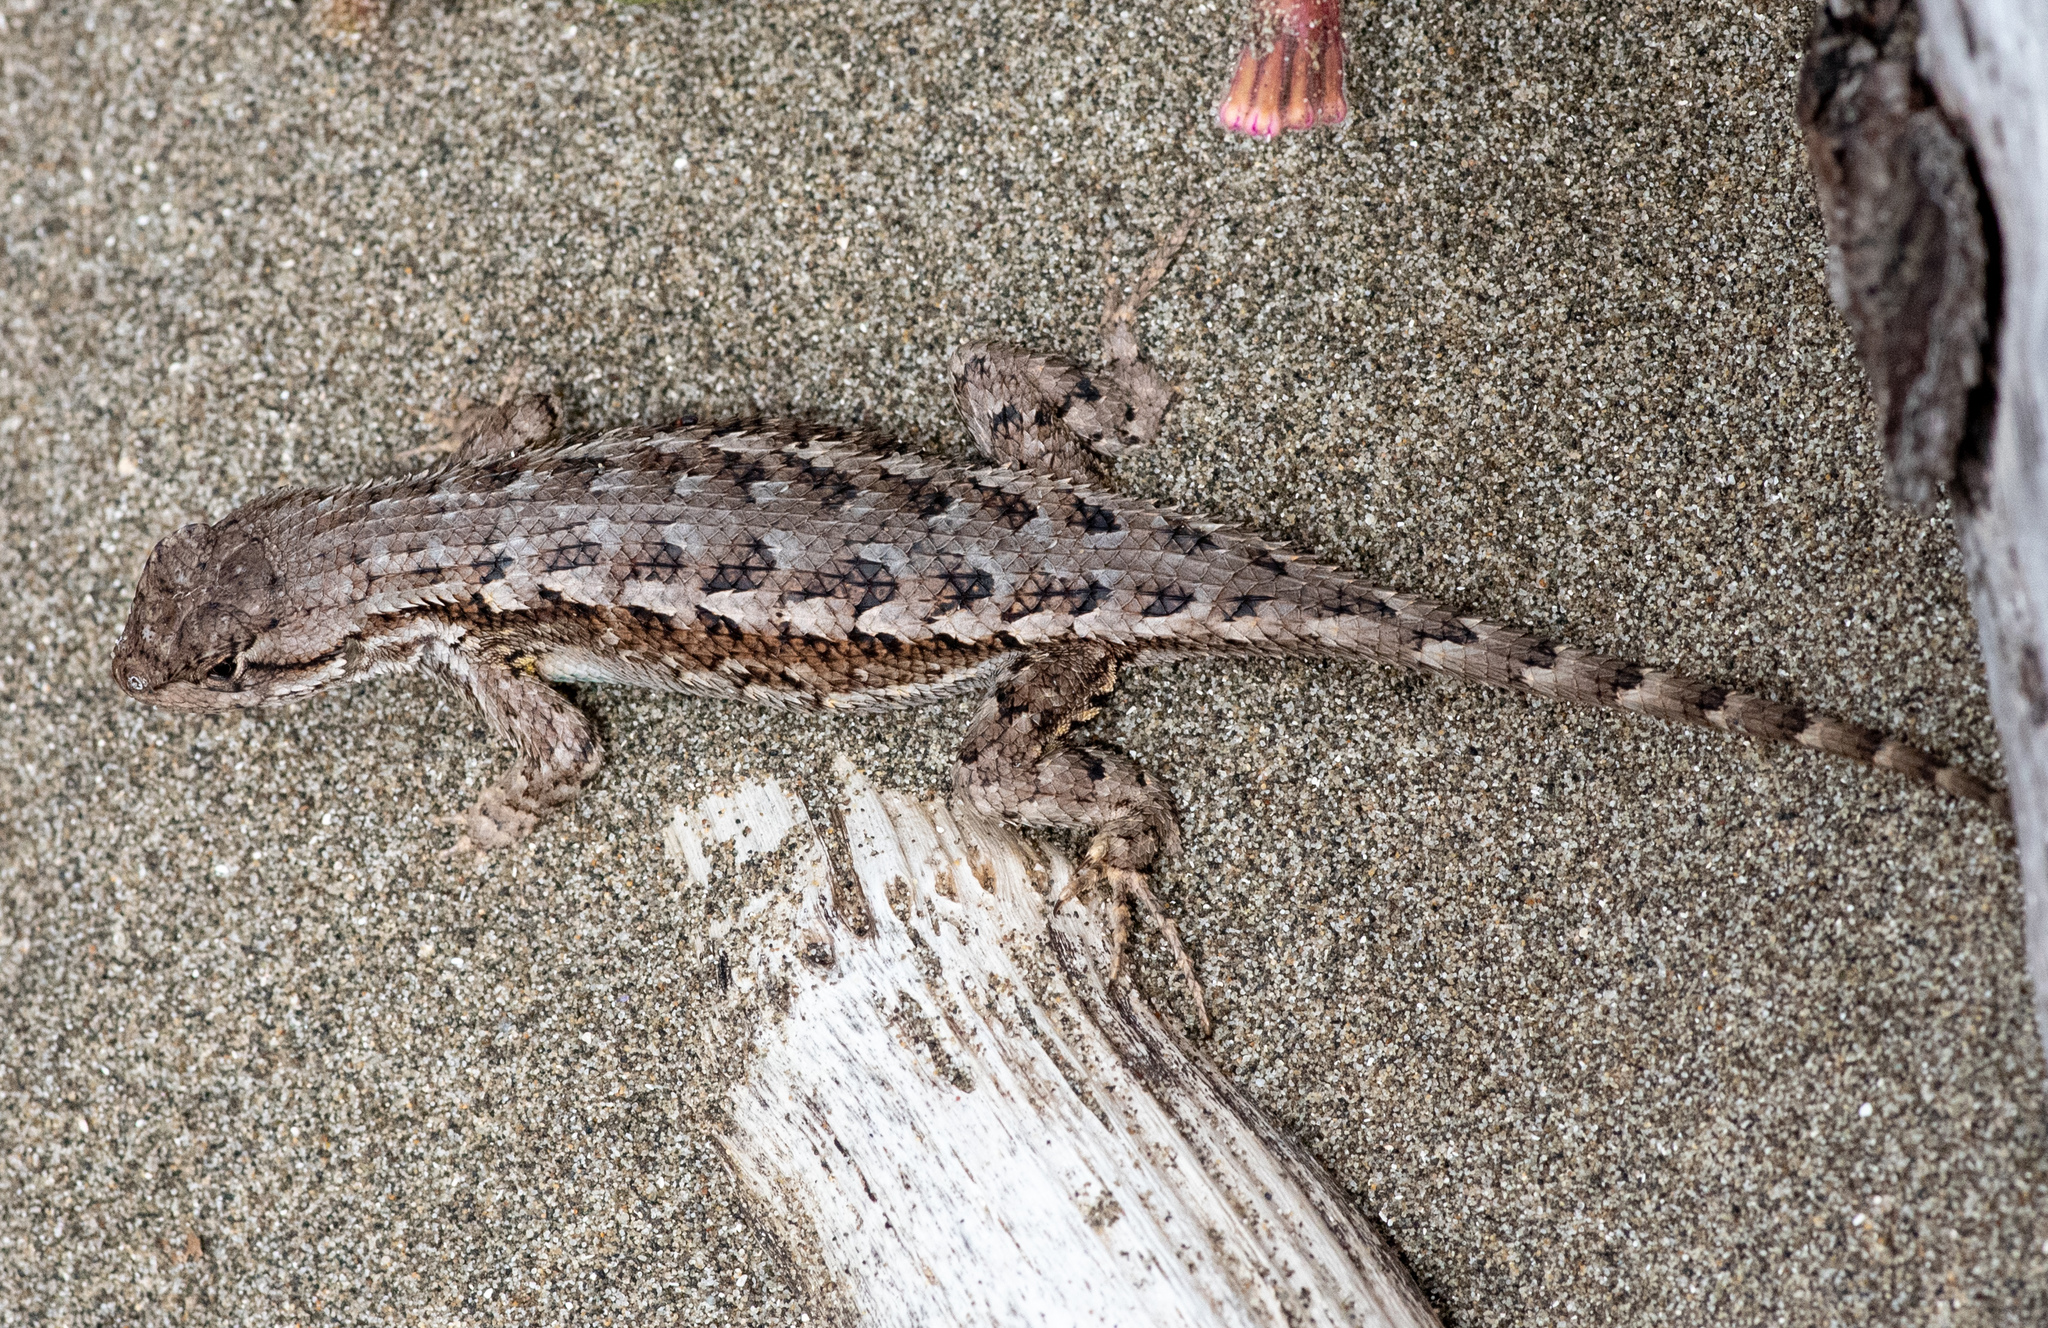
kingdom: Animalia
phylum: Chordata
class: Squamata
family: Phrynosomatidae
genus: Sceloporus
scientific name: Sceloporus occidentalis
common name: Western fence lizard
